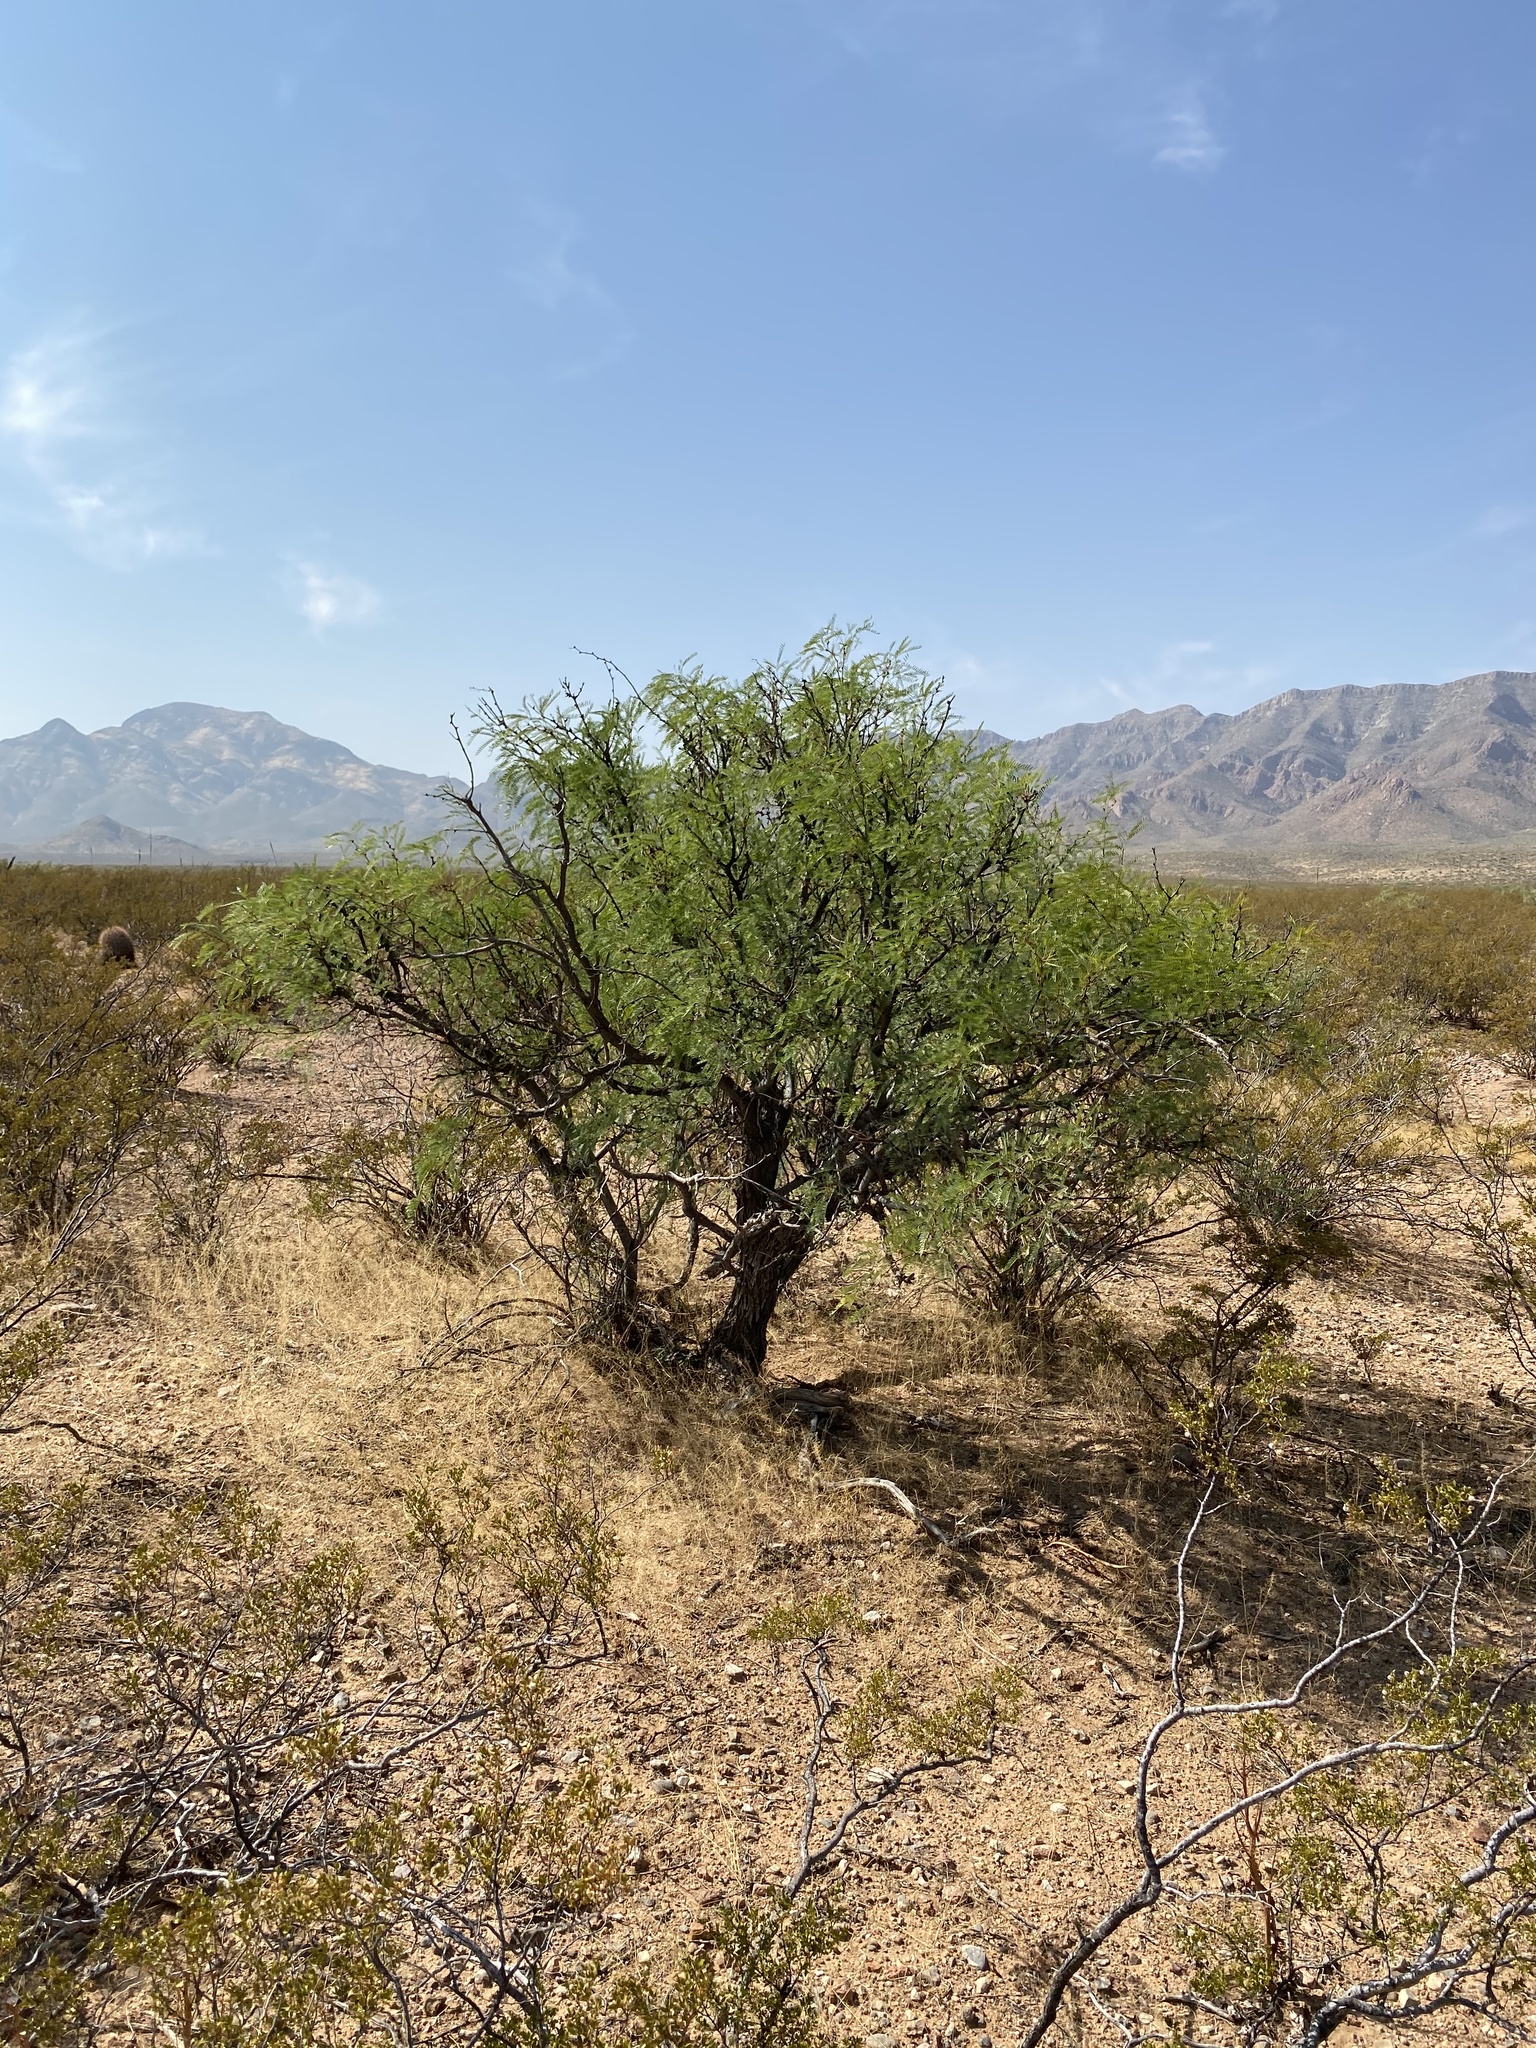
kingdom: Plantae
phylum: Tracheophyta
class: Magnoliopsida
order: Fabales
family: Fabaceae
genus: Prosopis
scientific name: Prosopis glandulosa
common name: Honey mesquite
